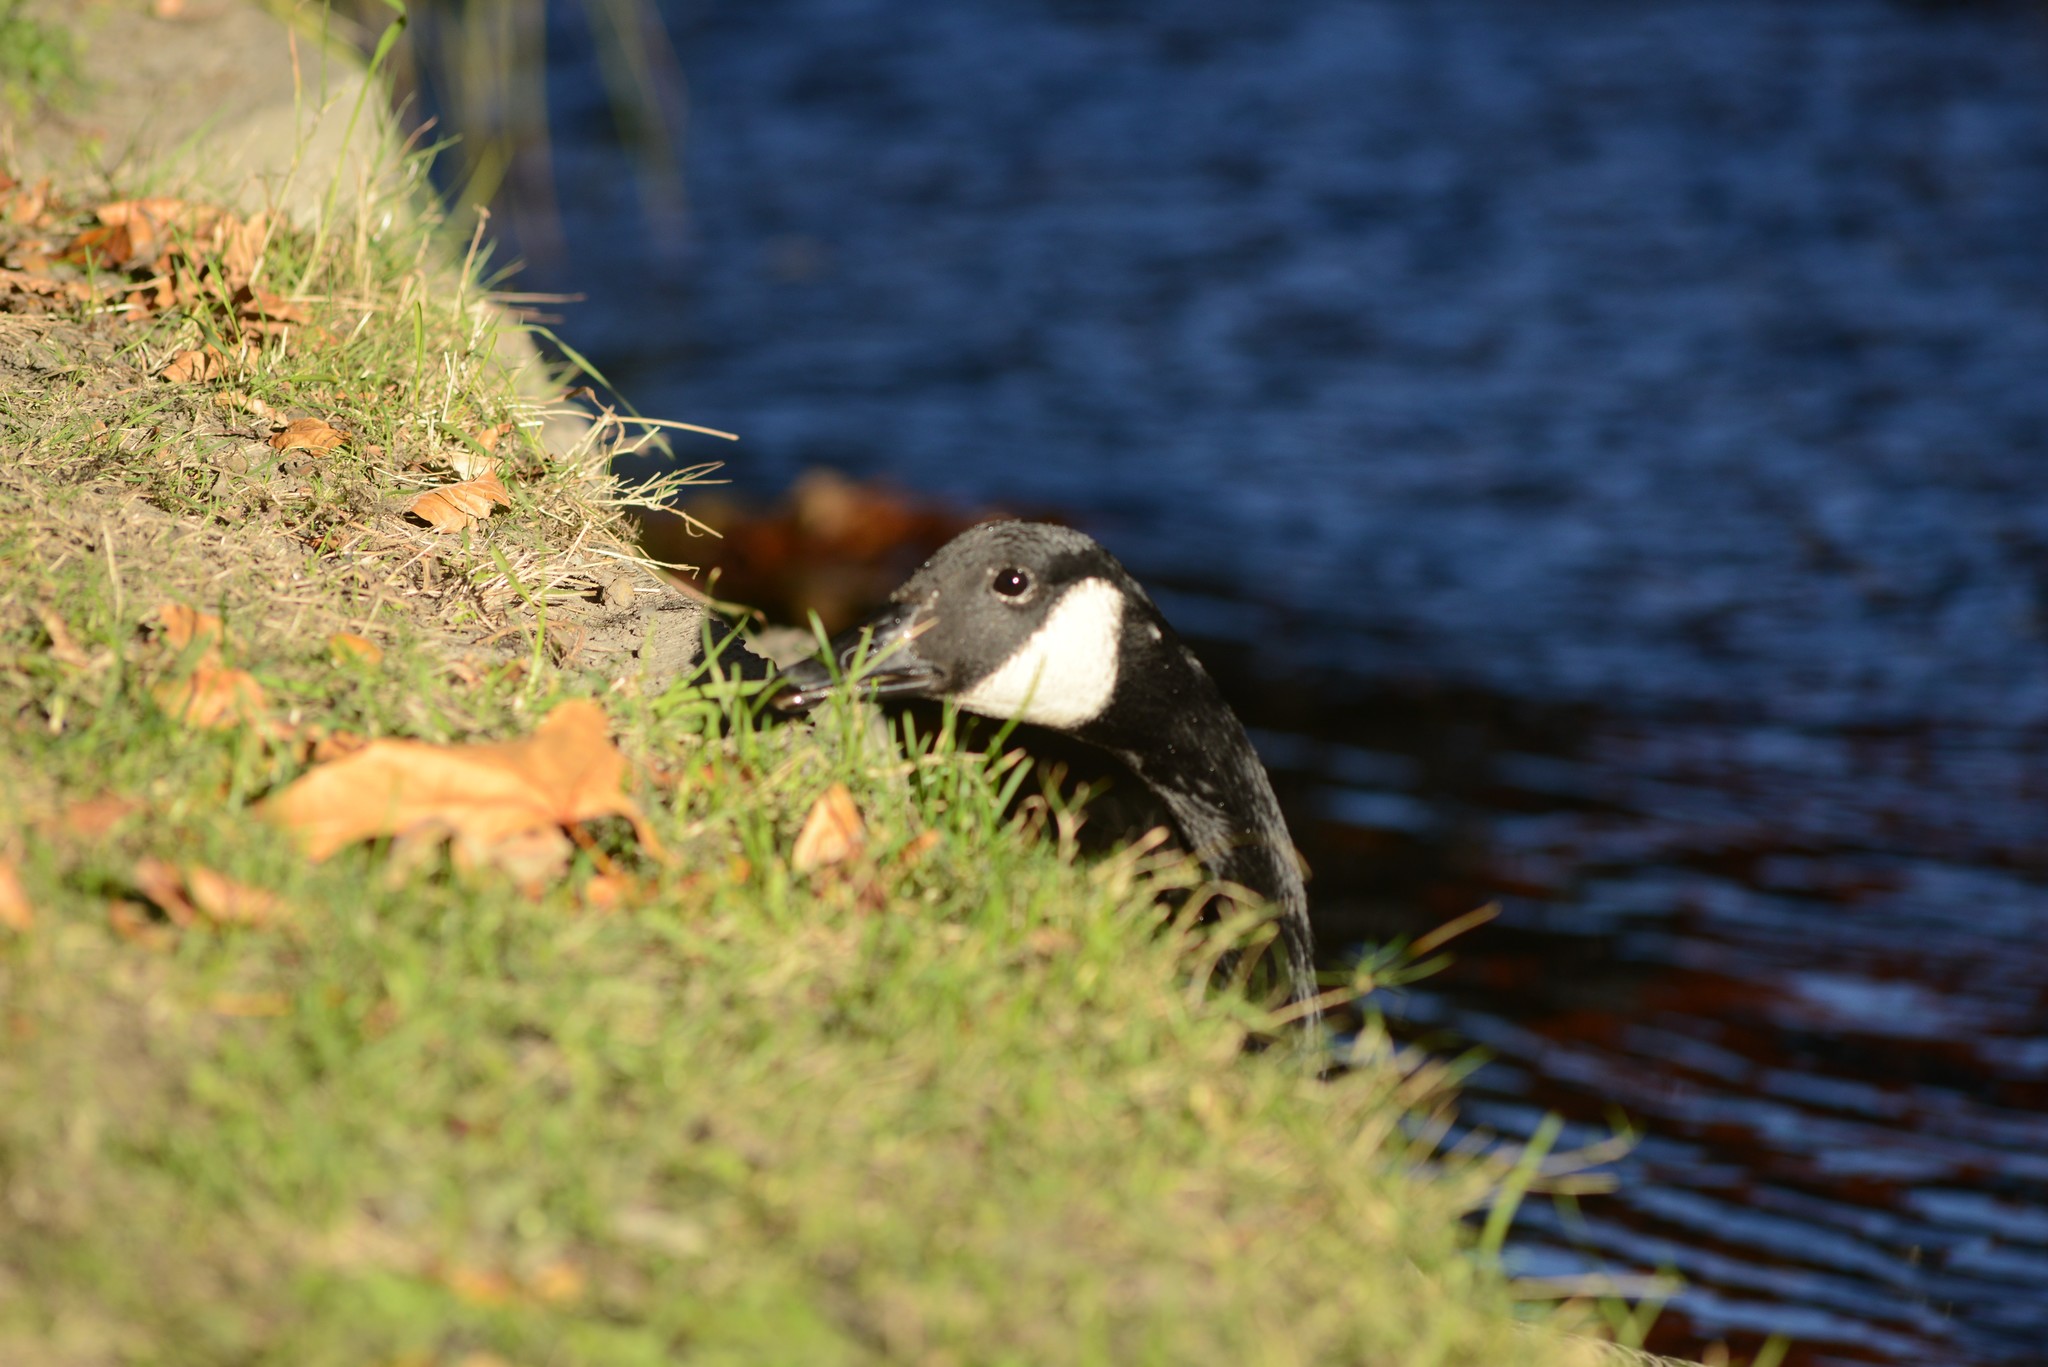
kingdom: Animalia
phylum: Chordata
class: Aves
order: Anseriformes
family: Anatidae
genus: Branta
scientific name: Branta canadensis
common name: Canada goose
